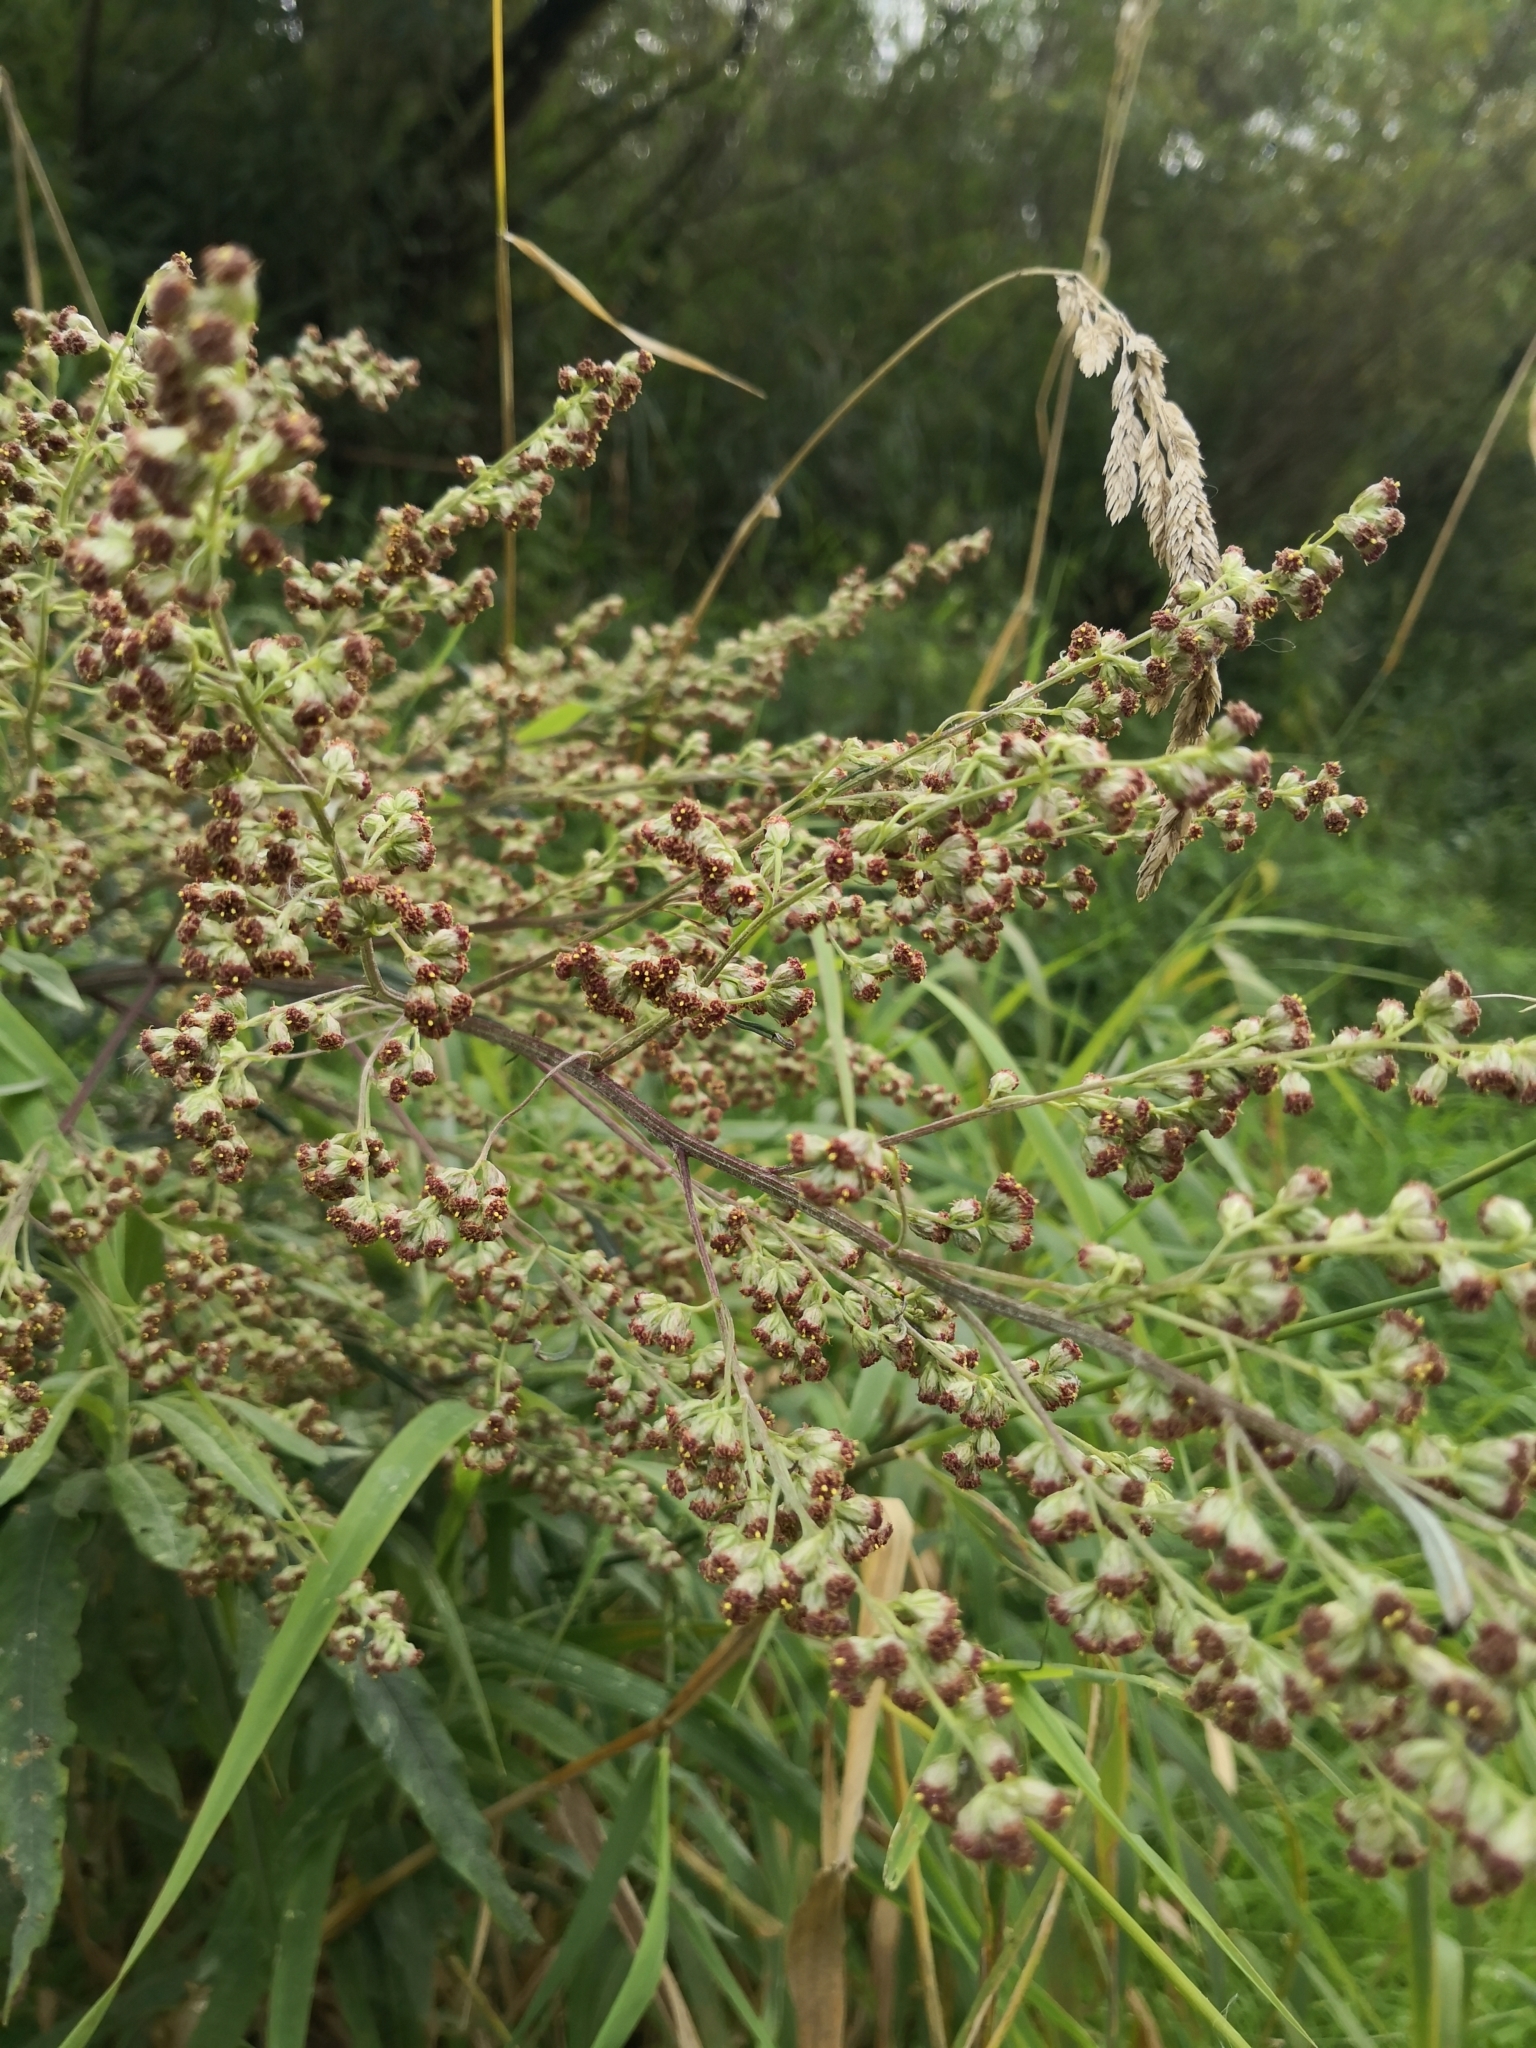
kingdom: Plantae
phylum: Tracheophyta
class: Magnoliopsida
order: Asterales
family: Asteraceae
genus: Artemisia
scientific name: Artemisia vulgaris
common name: Mugwort
